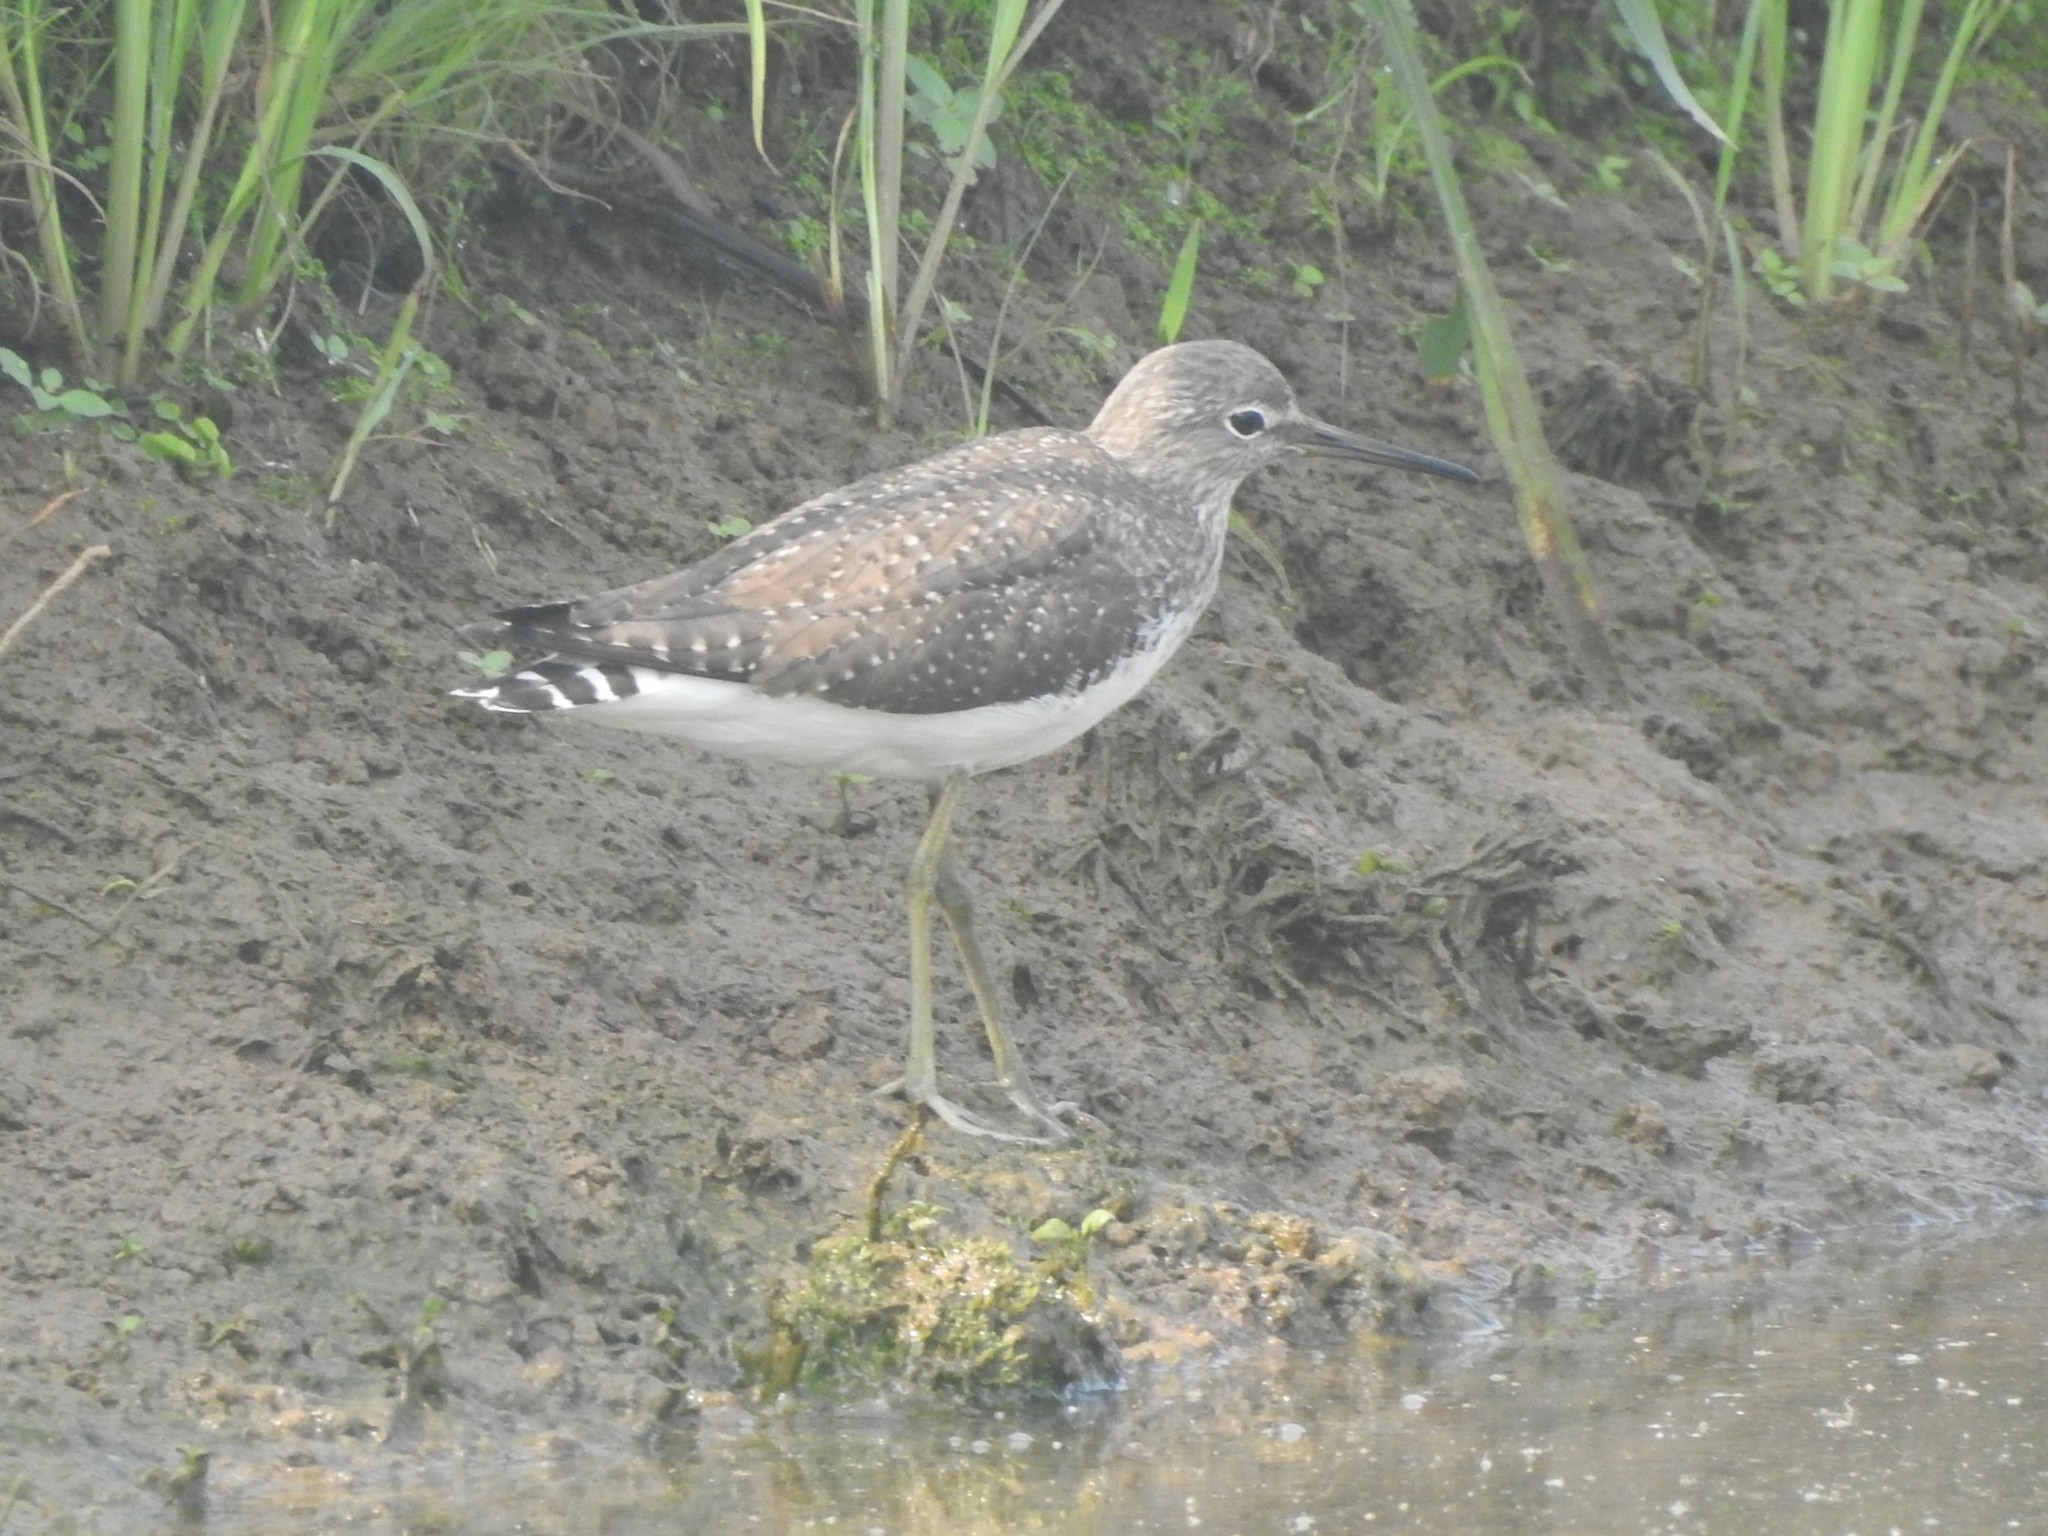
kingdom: Animalia
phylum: Chordata
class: Aves
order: Charadriiformes
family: Scolopacidae
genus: Tringa
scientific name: Tringa ochropus
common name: Green sandpiper
